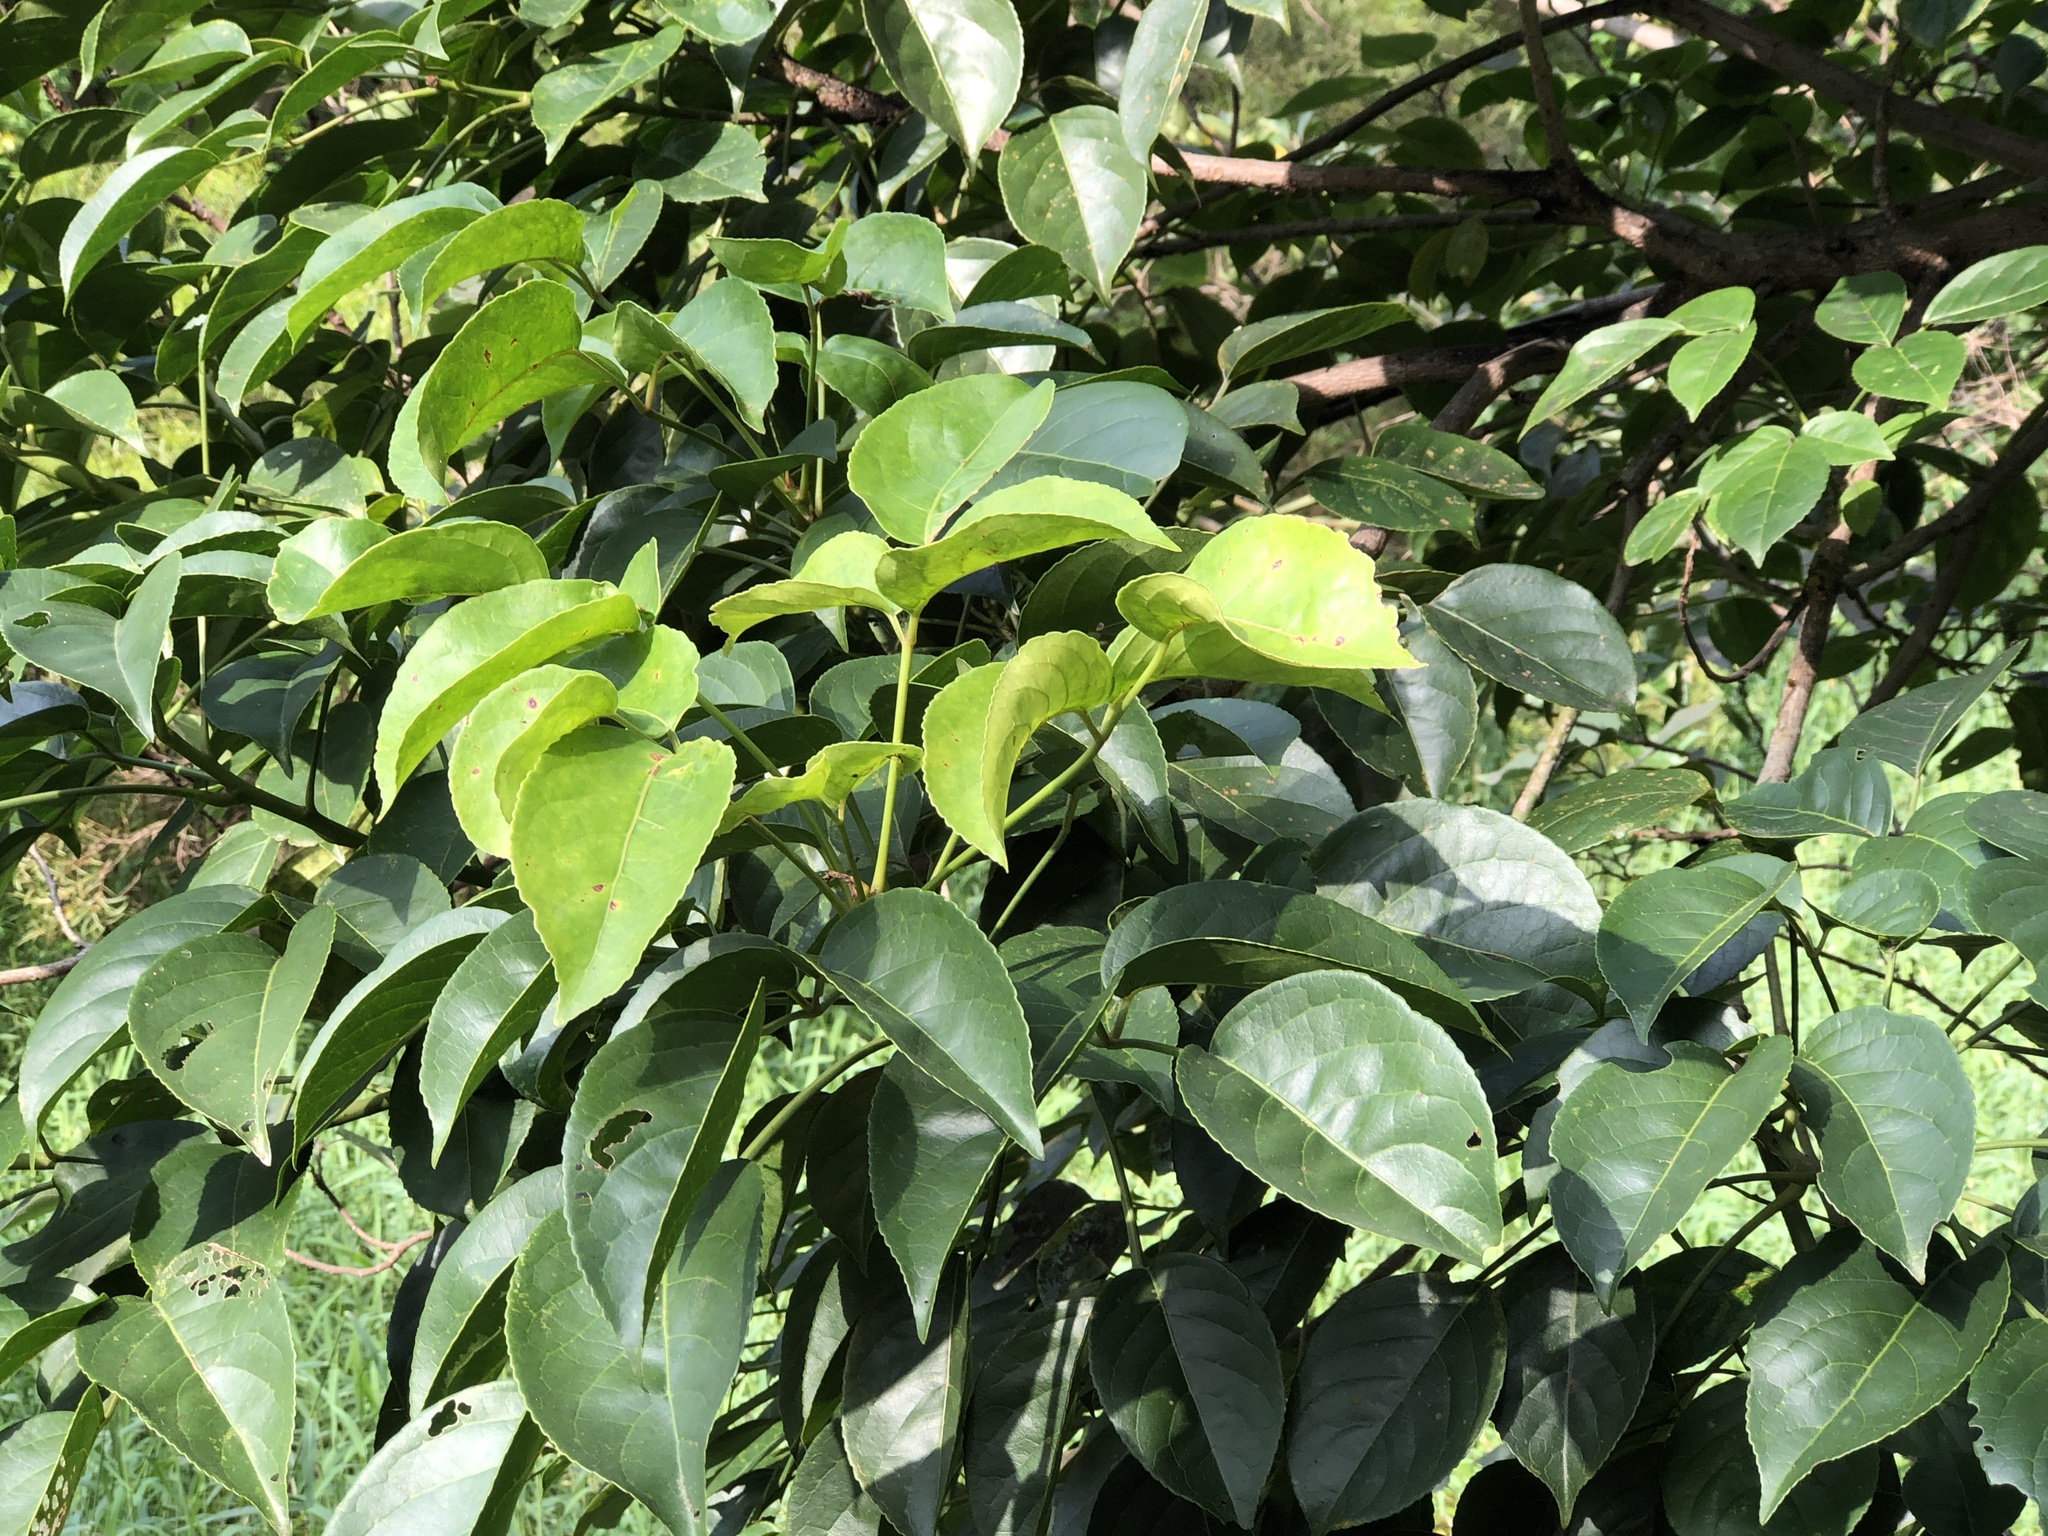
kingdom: Plantae
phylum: Tracheophyta
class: Magnoliopsida
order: Malpighiales
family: Phyllanthaceae
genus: Bischofia
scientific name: Bischofia javanica
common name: Javanese bishopwood
